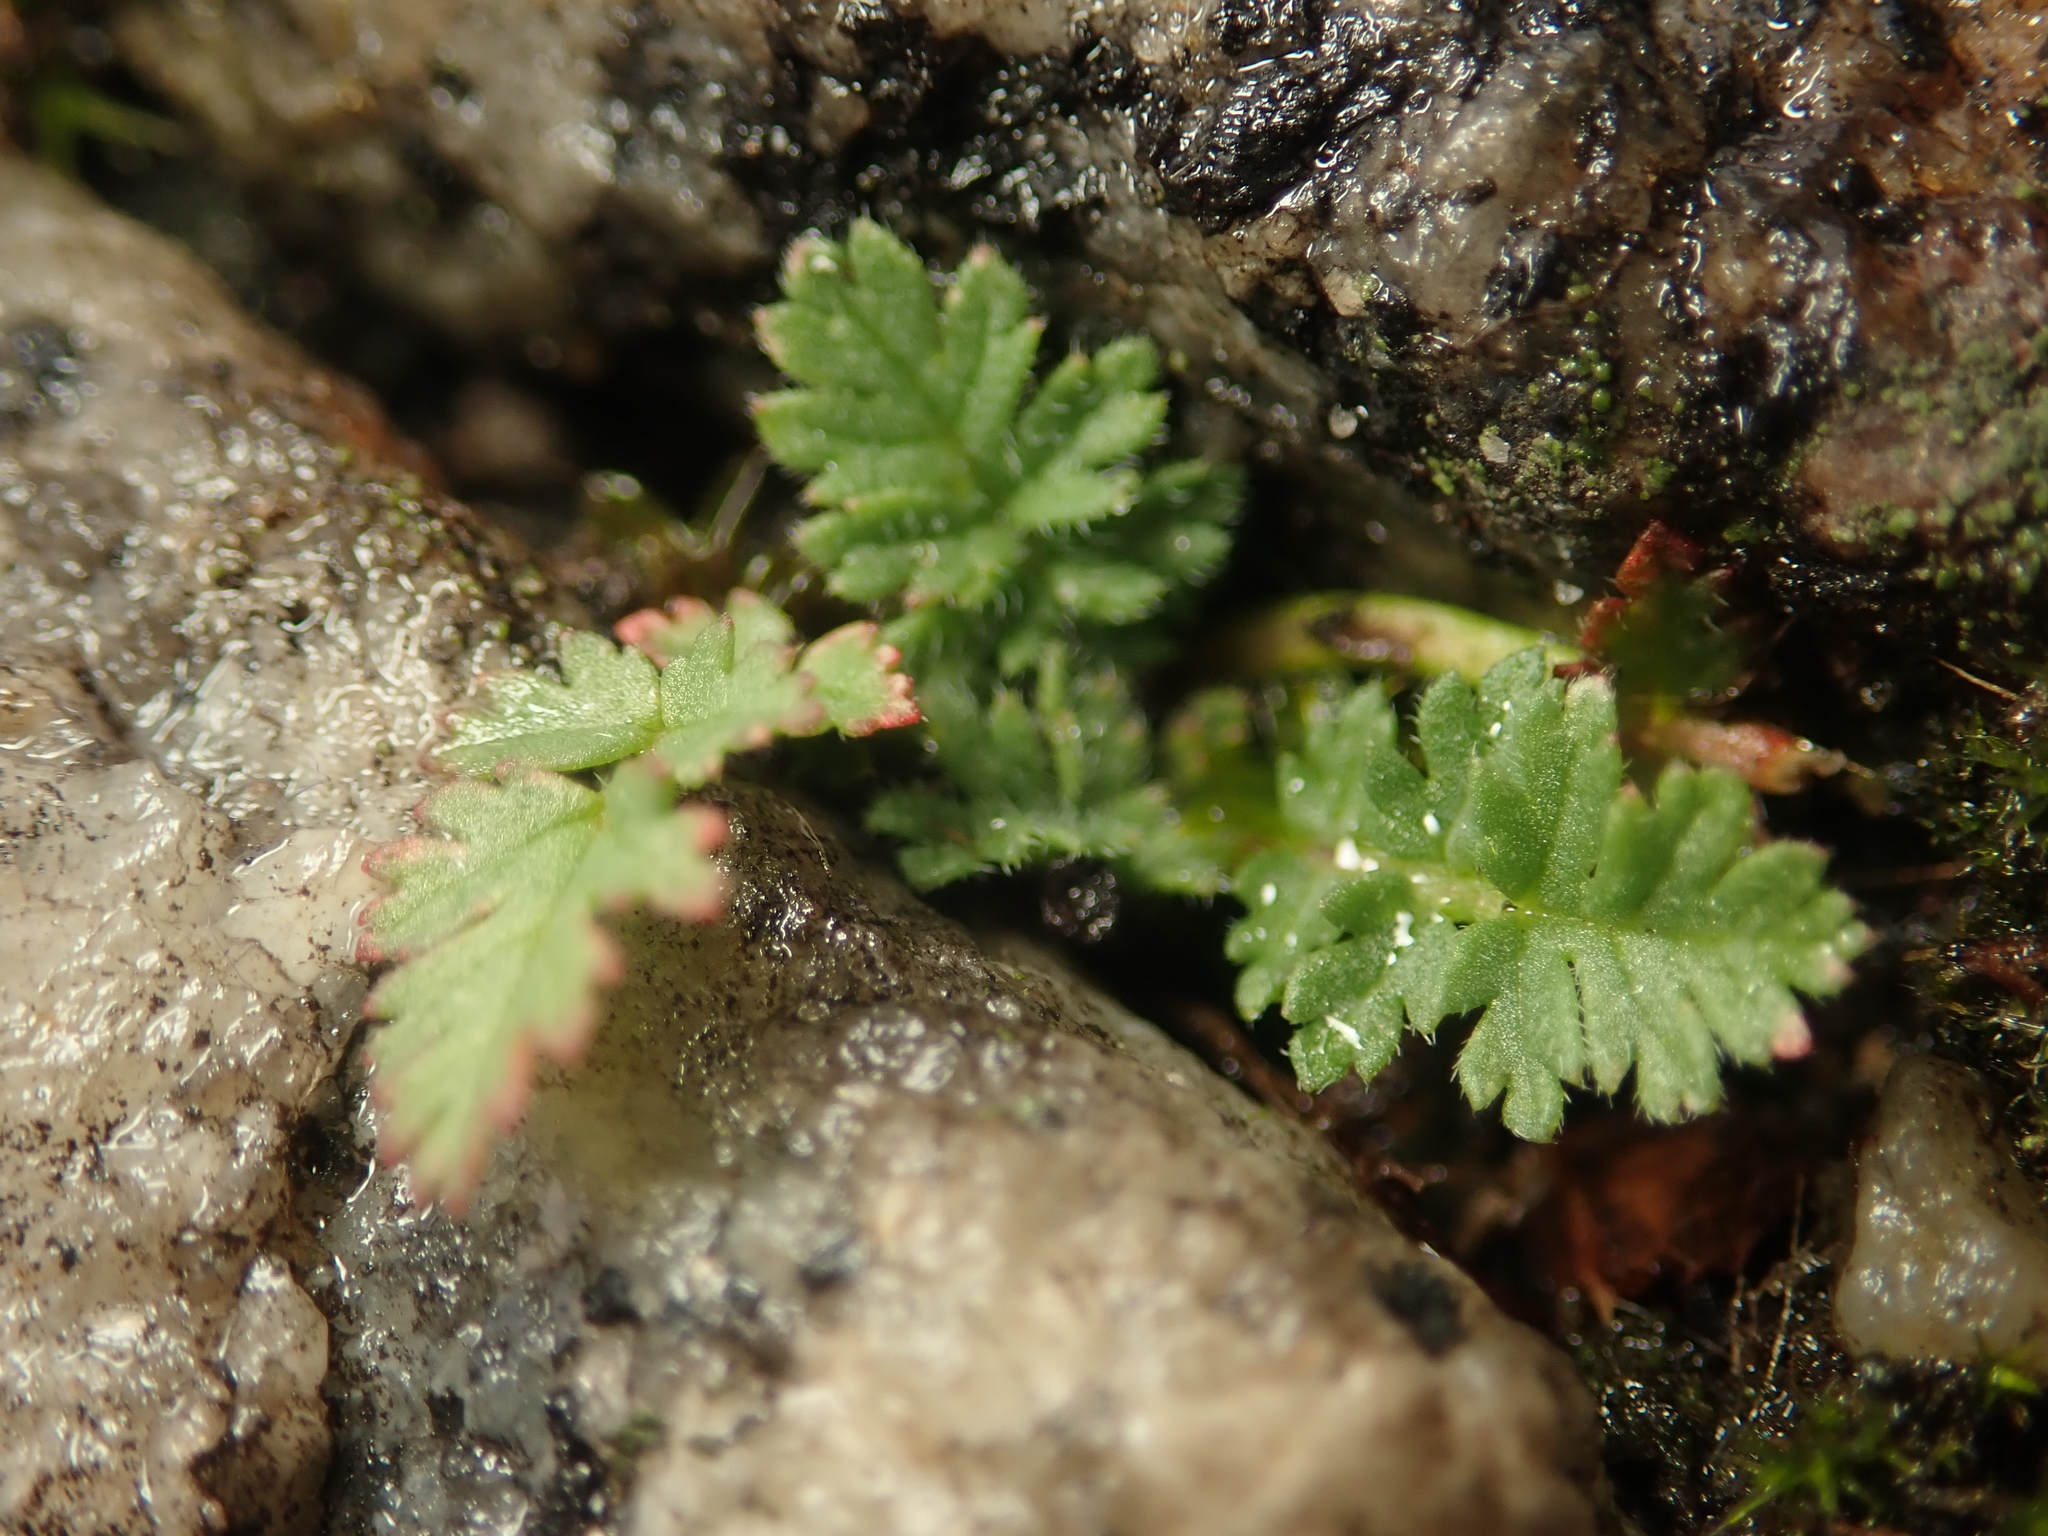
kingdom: Plantae
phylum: Tracheophyta
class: Magnoliopsida
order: Geraniales
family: Geraniaceae
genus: Erodium
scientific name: Erodium cicutarium
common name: Common stork's-bill
